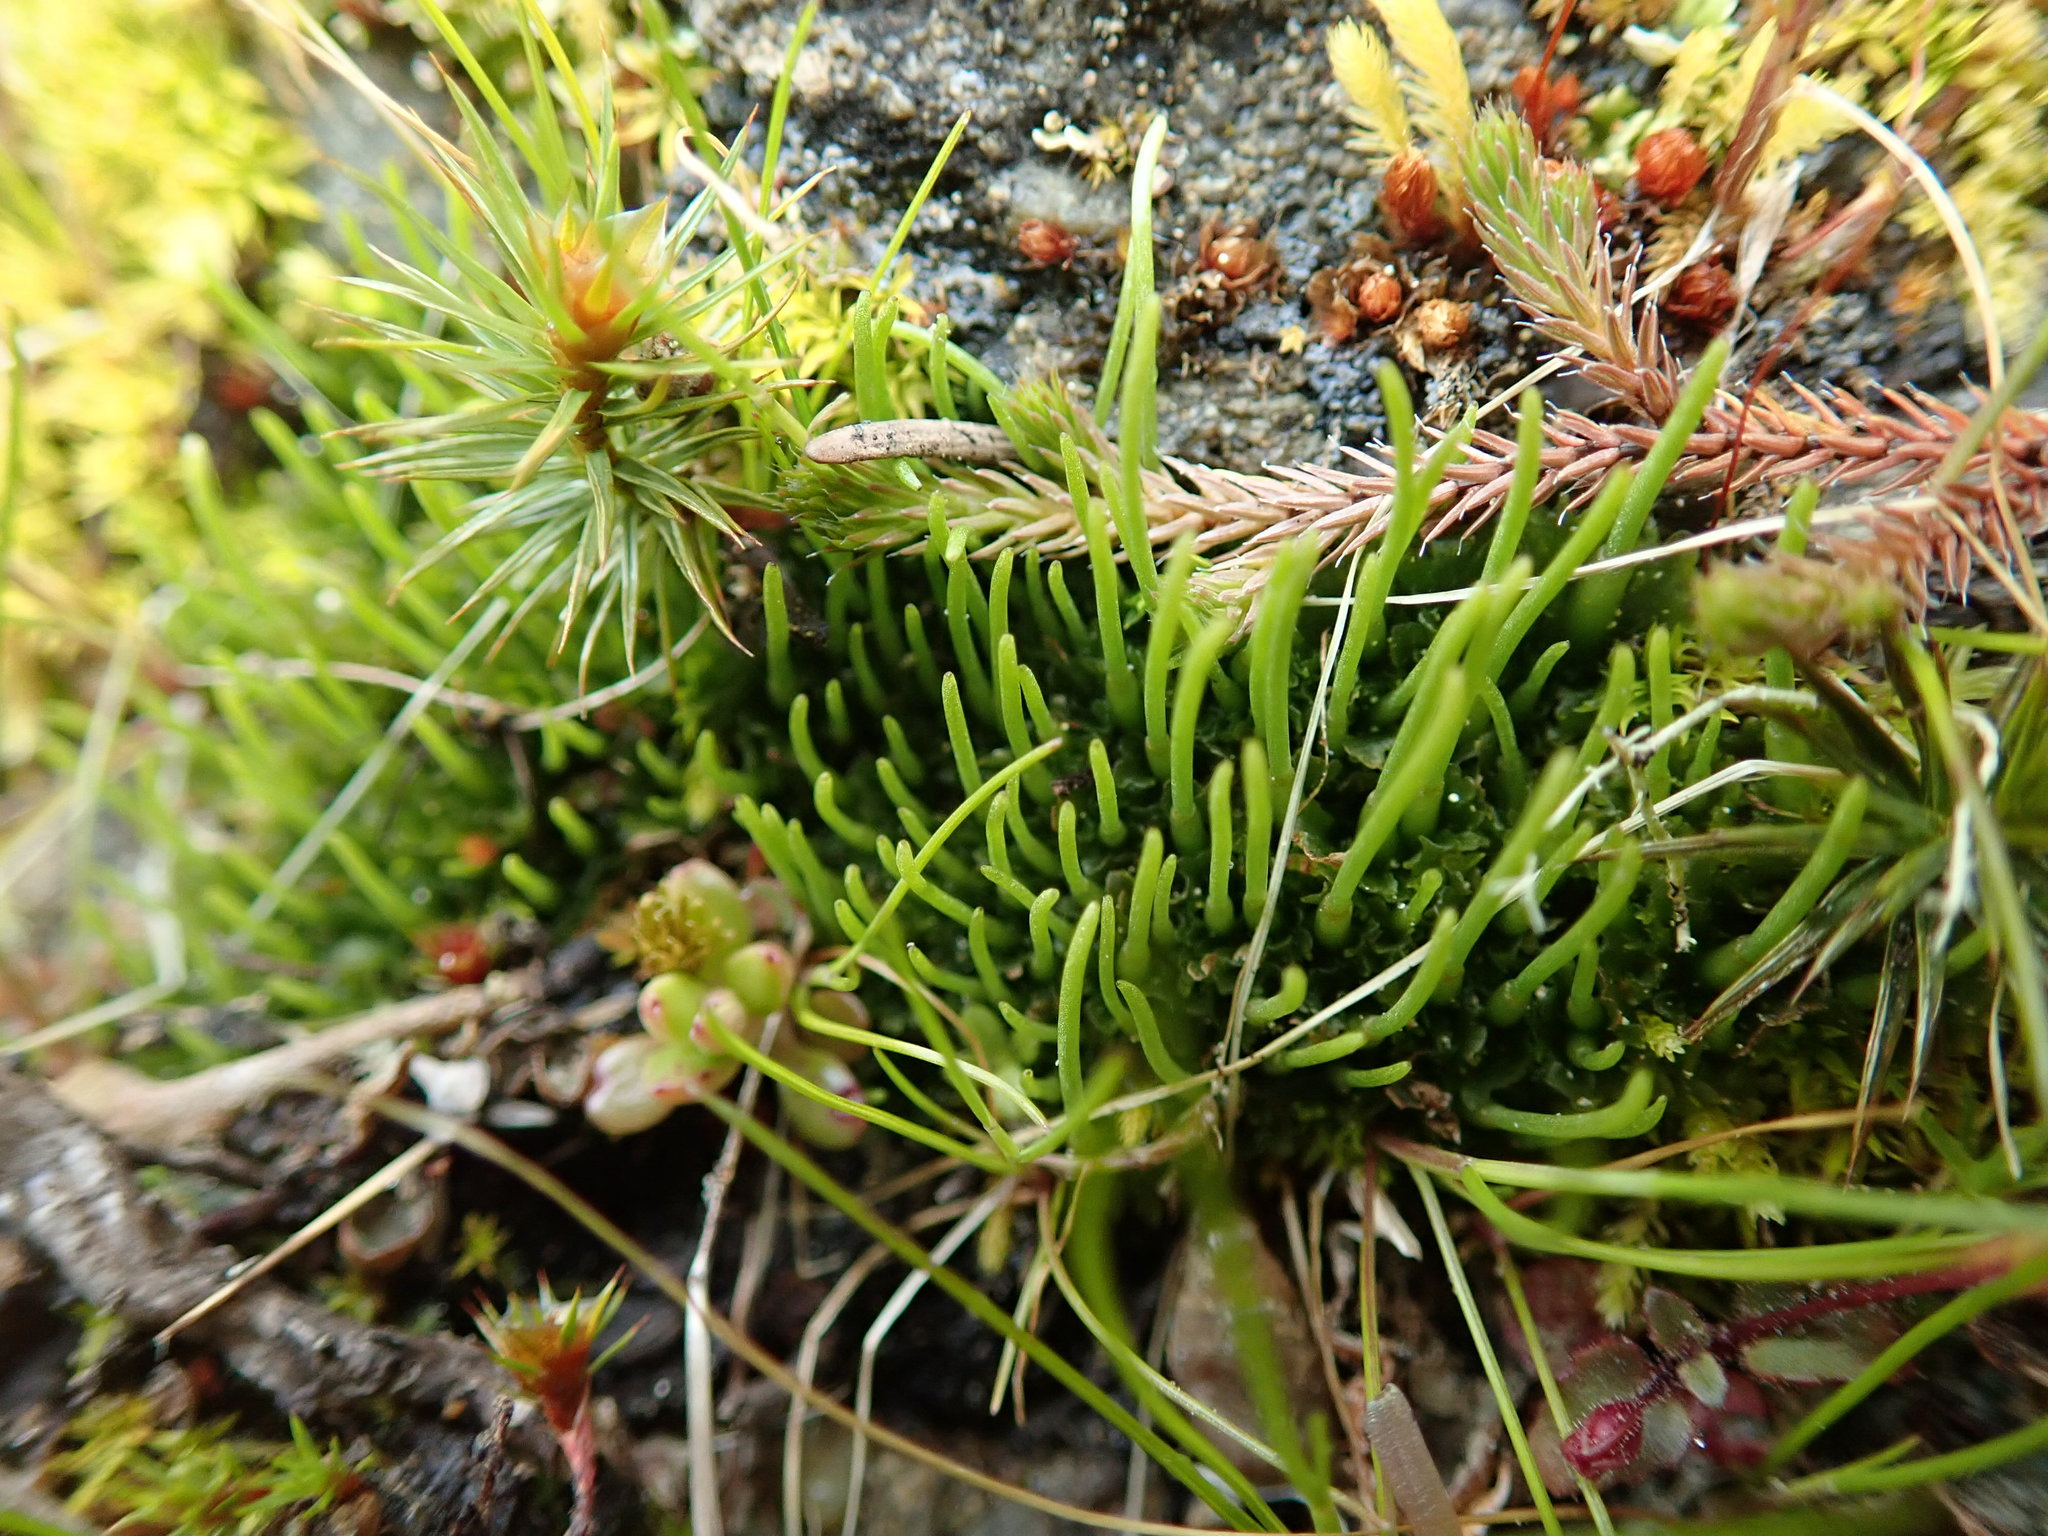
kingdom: Plantae
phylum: Anthocerotophyta
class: Anthocerotopsida
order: Anthocerotales
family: Anthocerotaceae
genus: Anthoceros
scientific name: Anthoceros fusiformis
